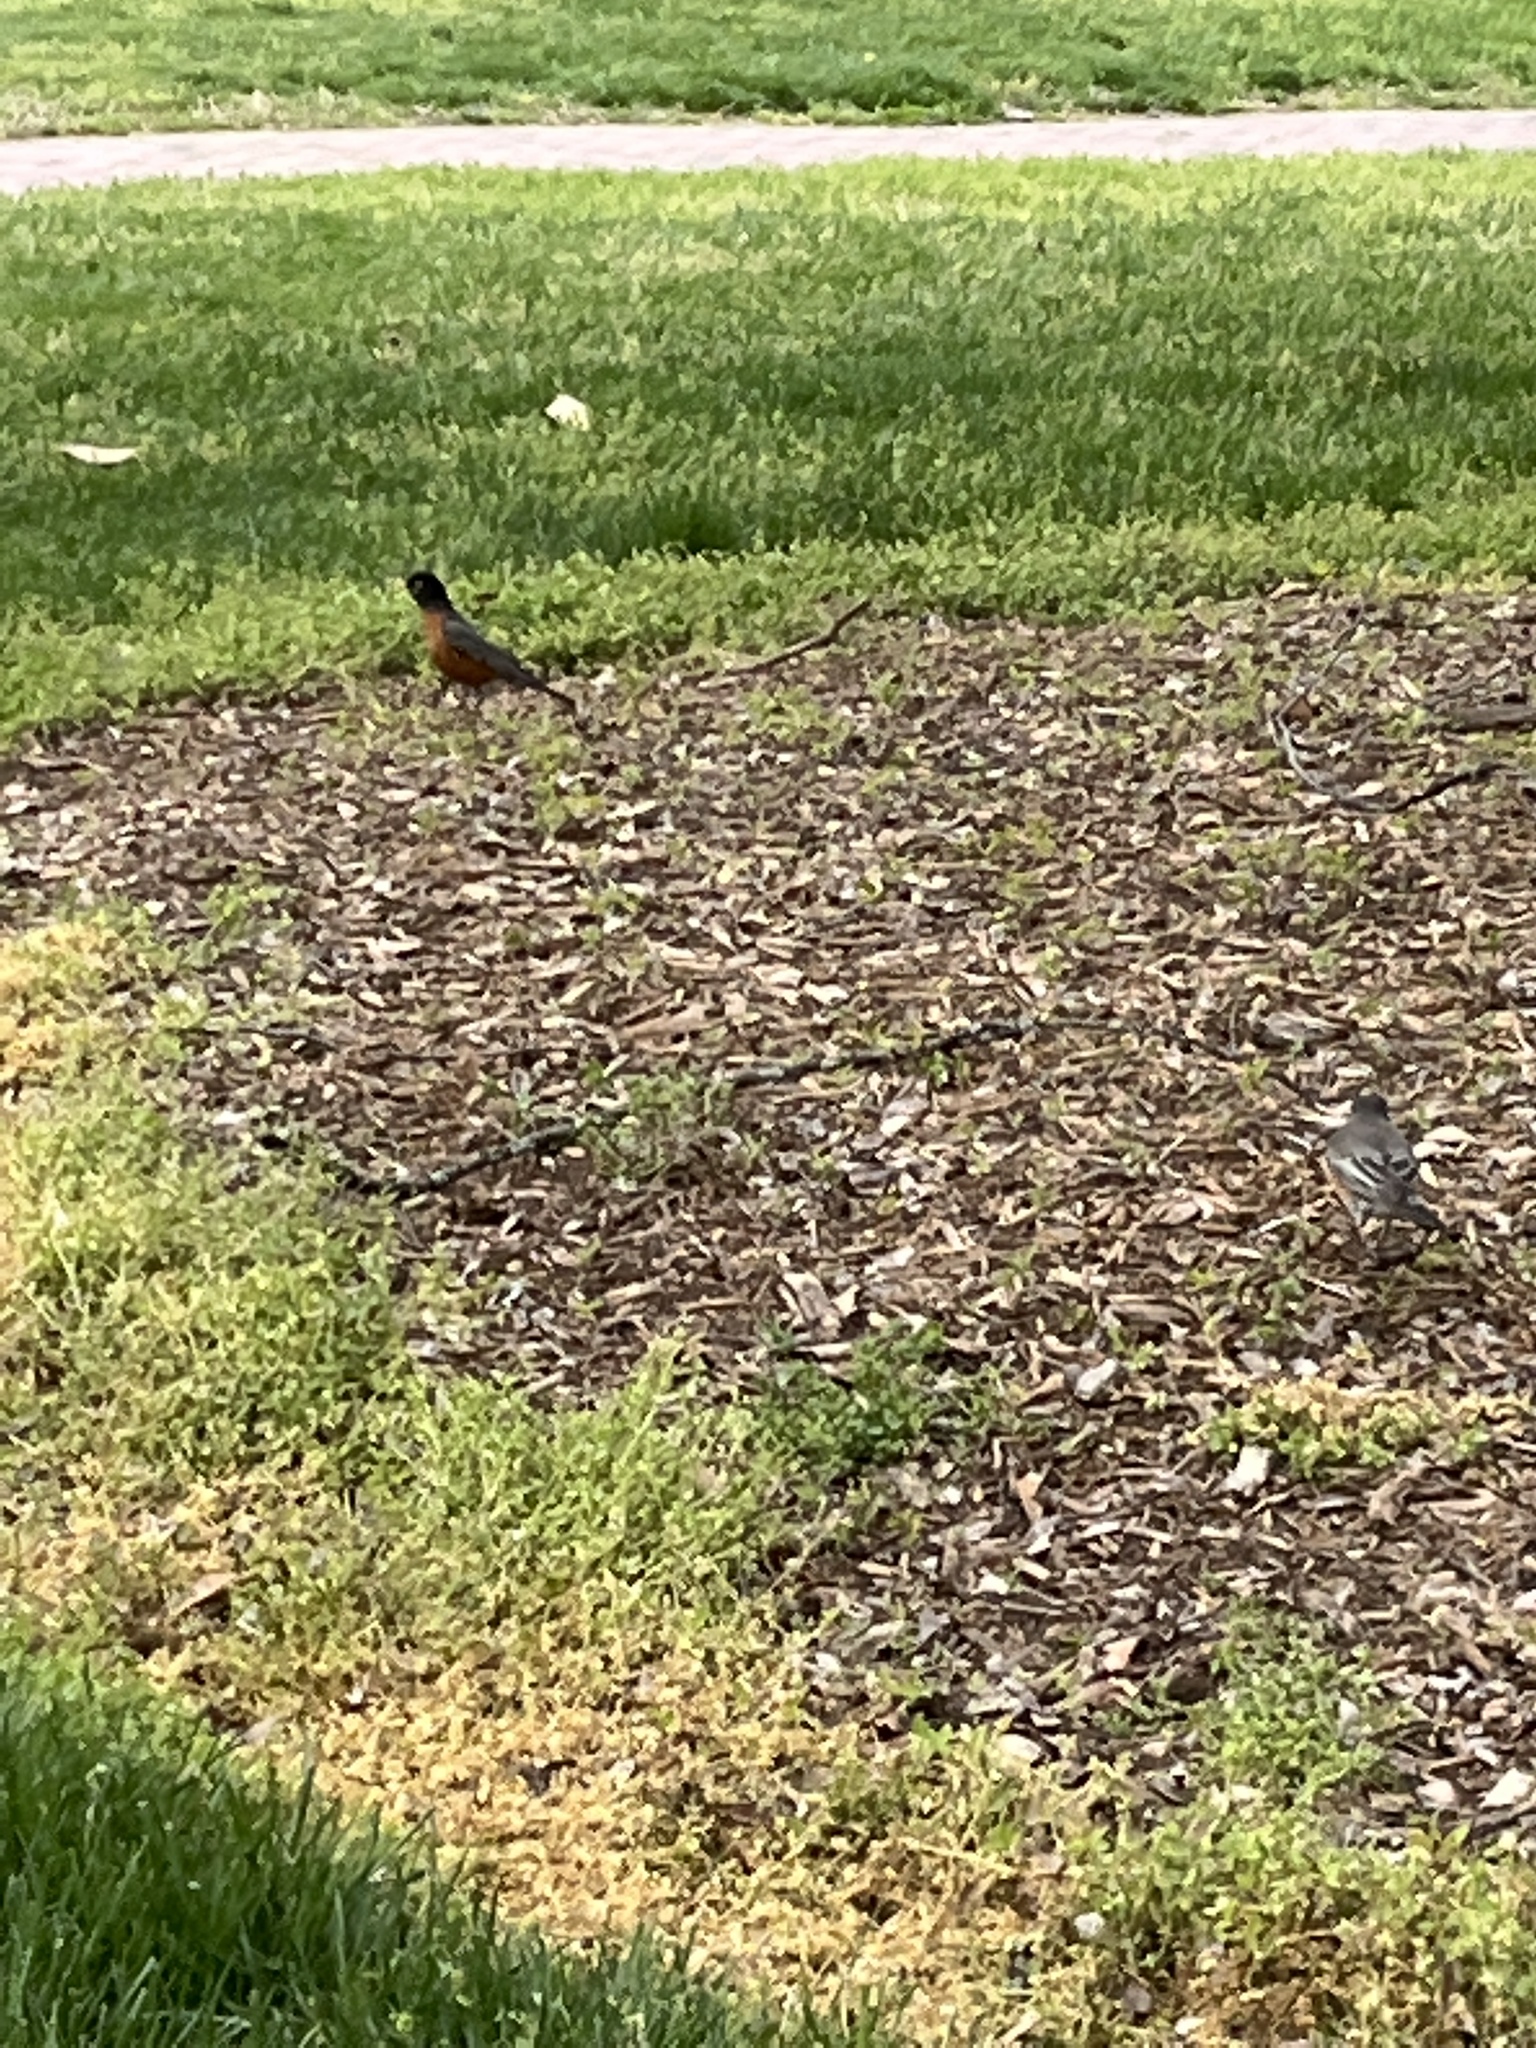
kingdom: Animalia
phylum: Chordata
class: Aves
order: Passeriformes
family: Turdidae
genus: Turdus
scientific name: Turdus migratorius
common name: American robin
